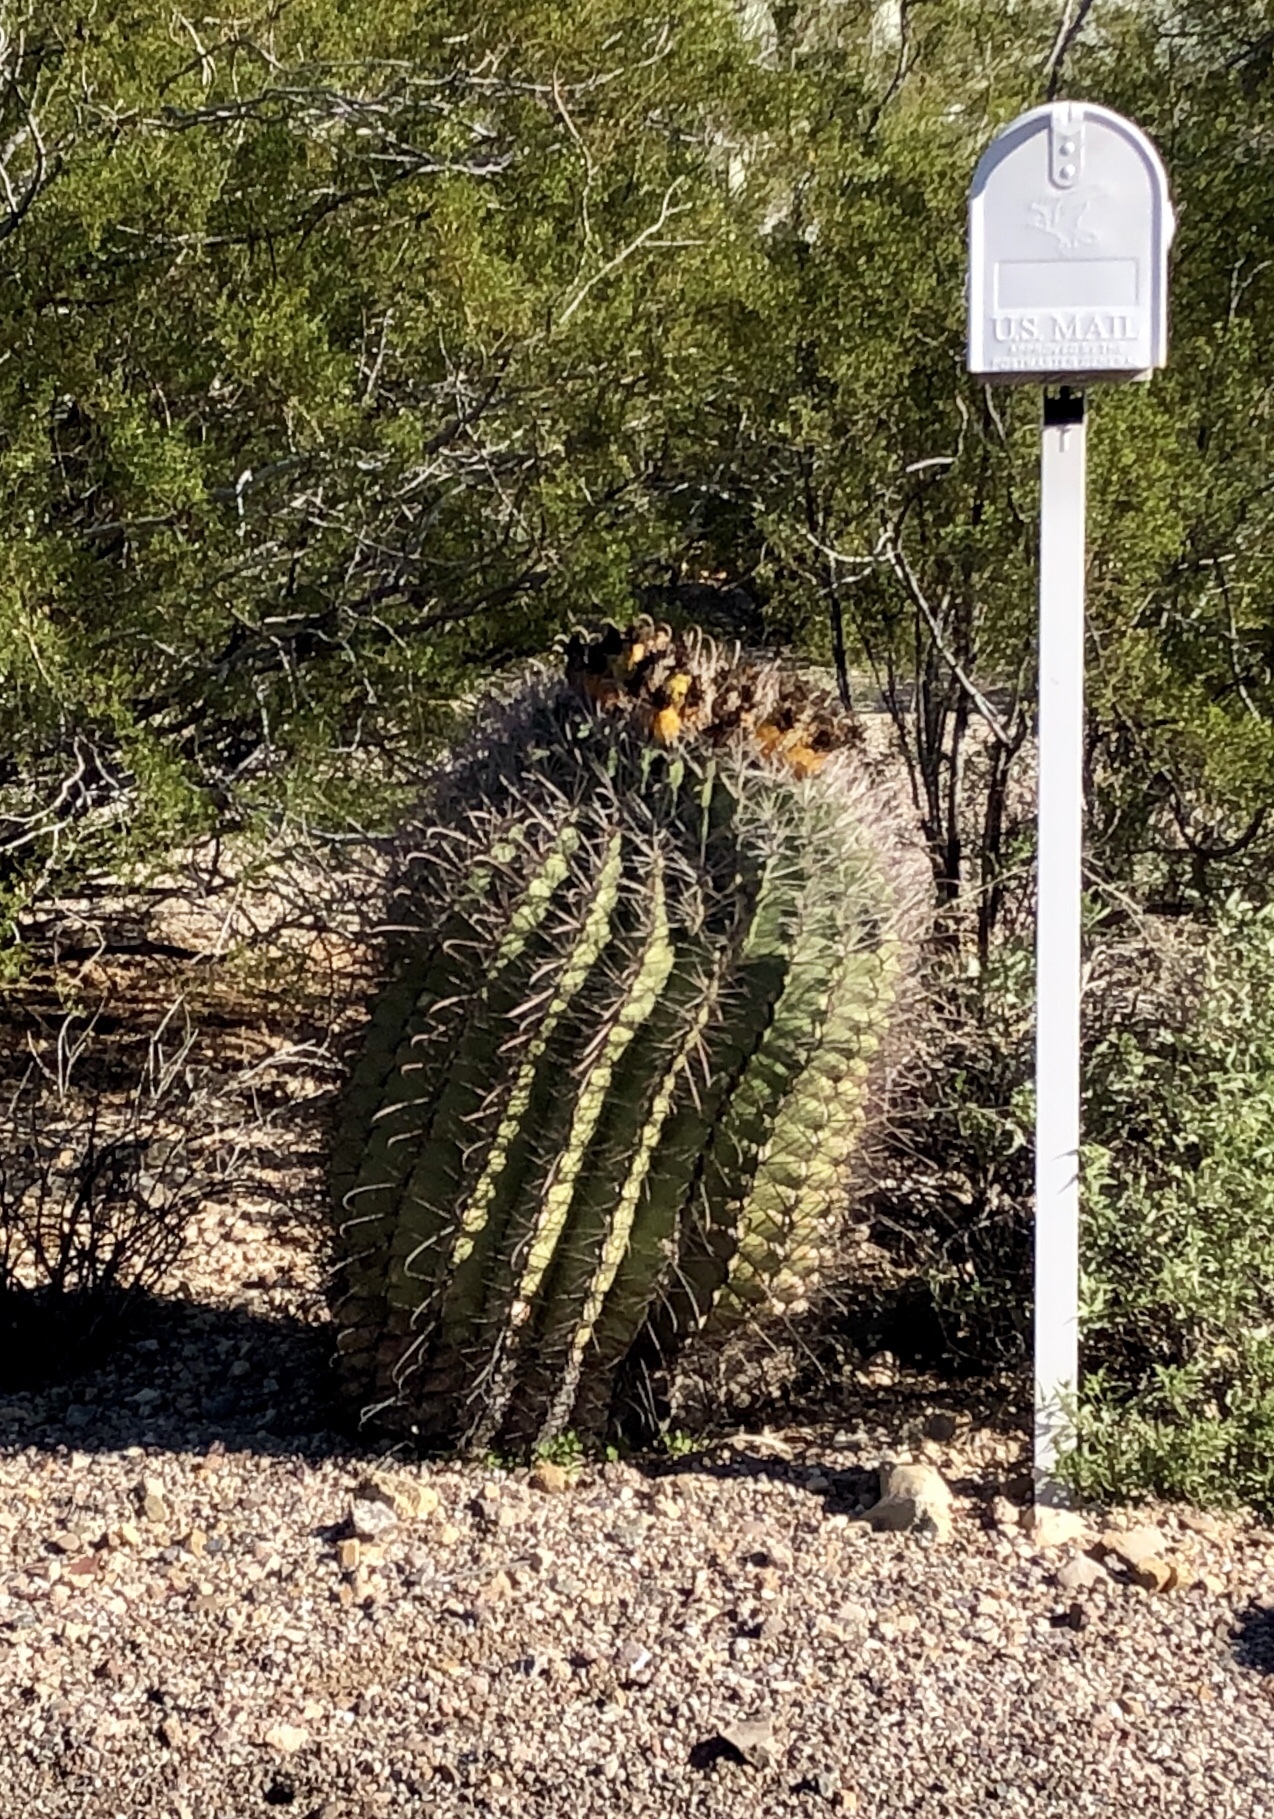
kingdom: Plantae
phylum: Tracheophyta
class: Magnoliopsida
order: Caryophyllales
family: Cactaceae
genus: Ferocactus
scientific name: Ferocactus wislizeni
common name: Candy barrel cactus
